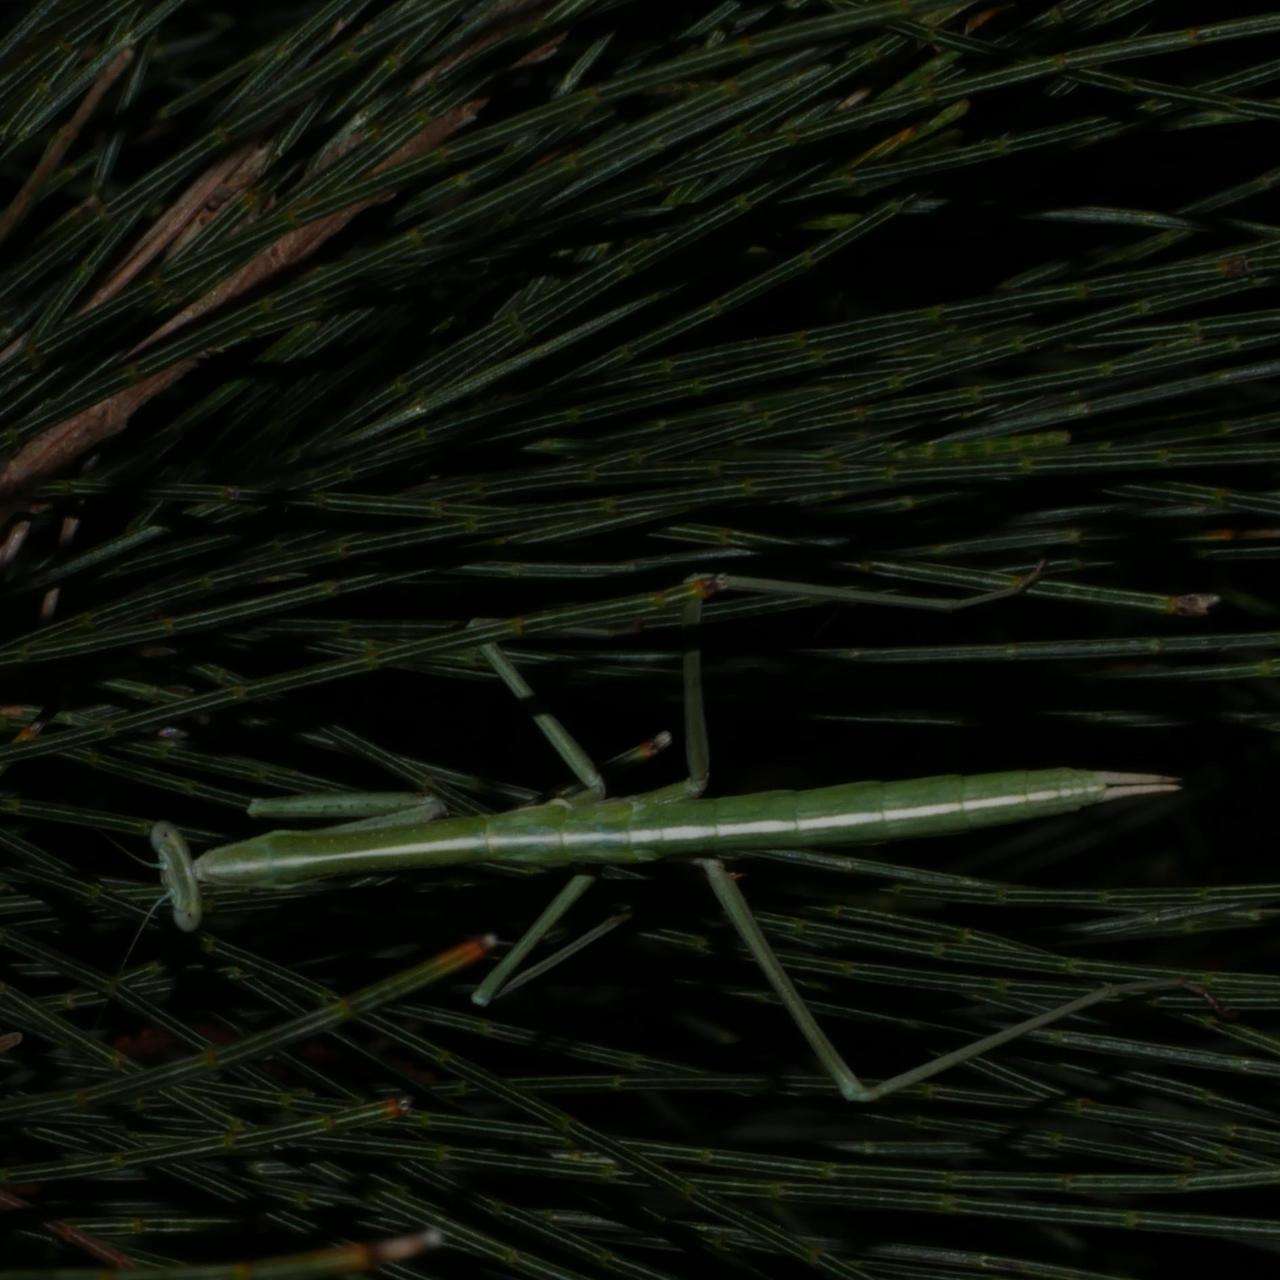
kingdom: Animalia
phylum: Arthropoda
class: Insecta
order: Mantodea
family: Mantidae
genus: Archimantis
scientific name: Archimantis sobrina
